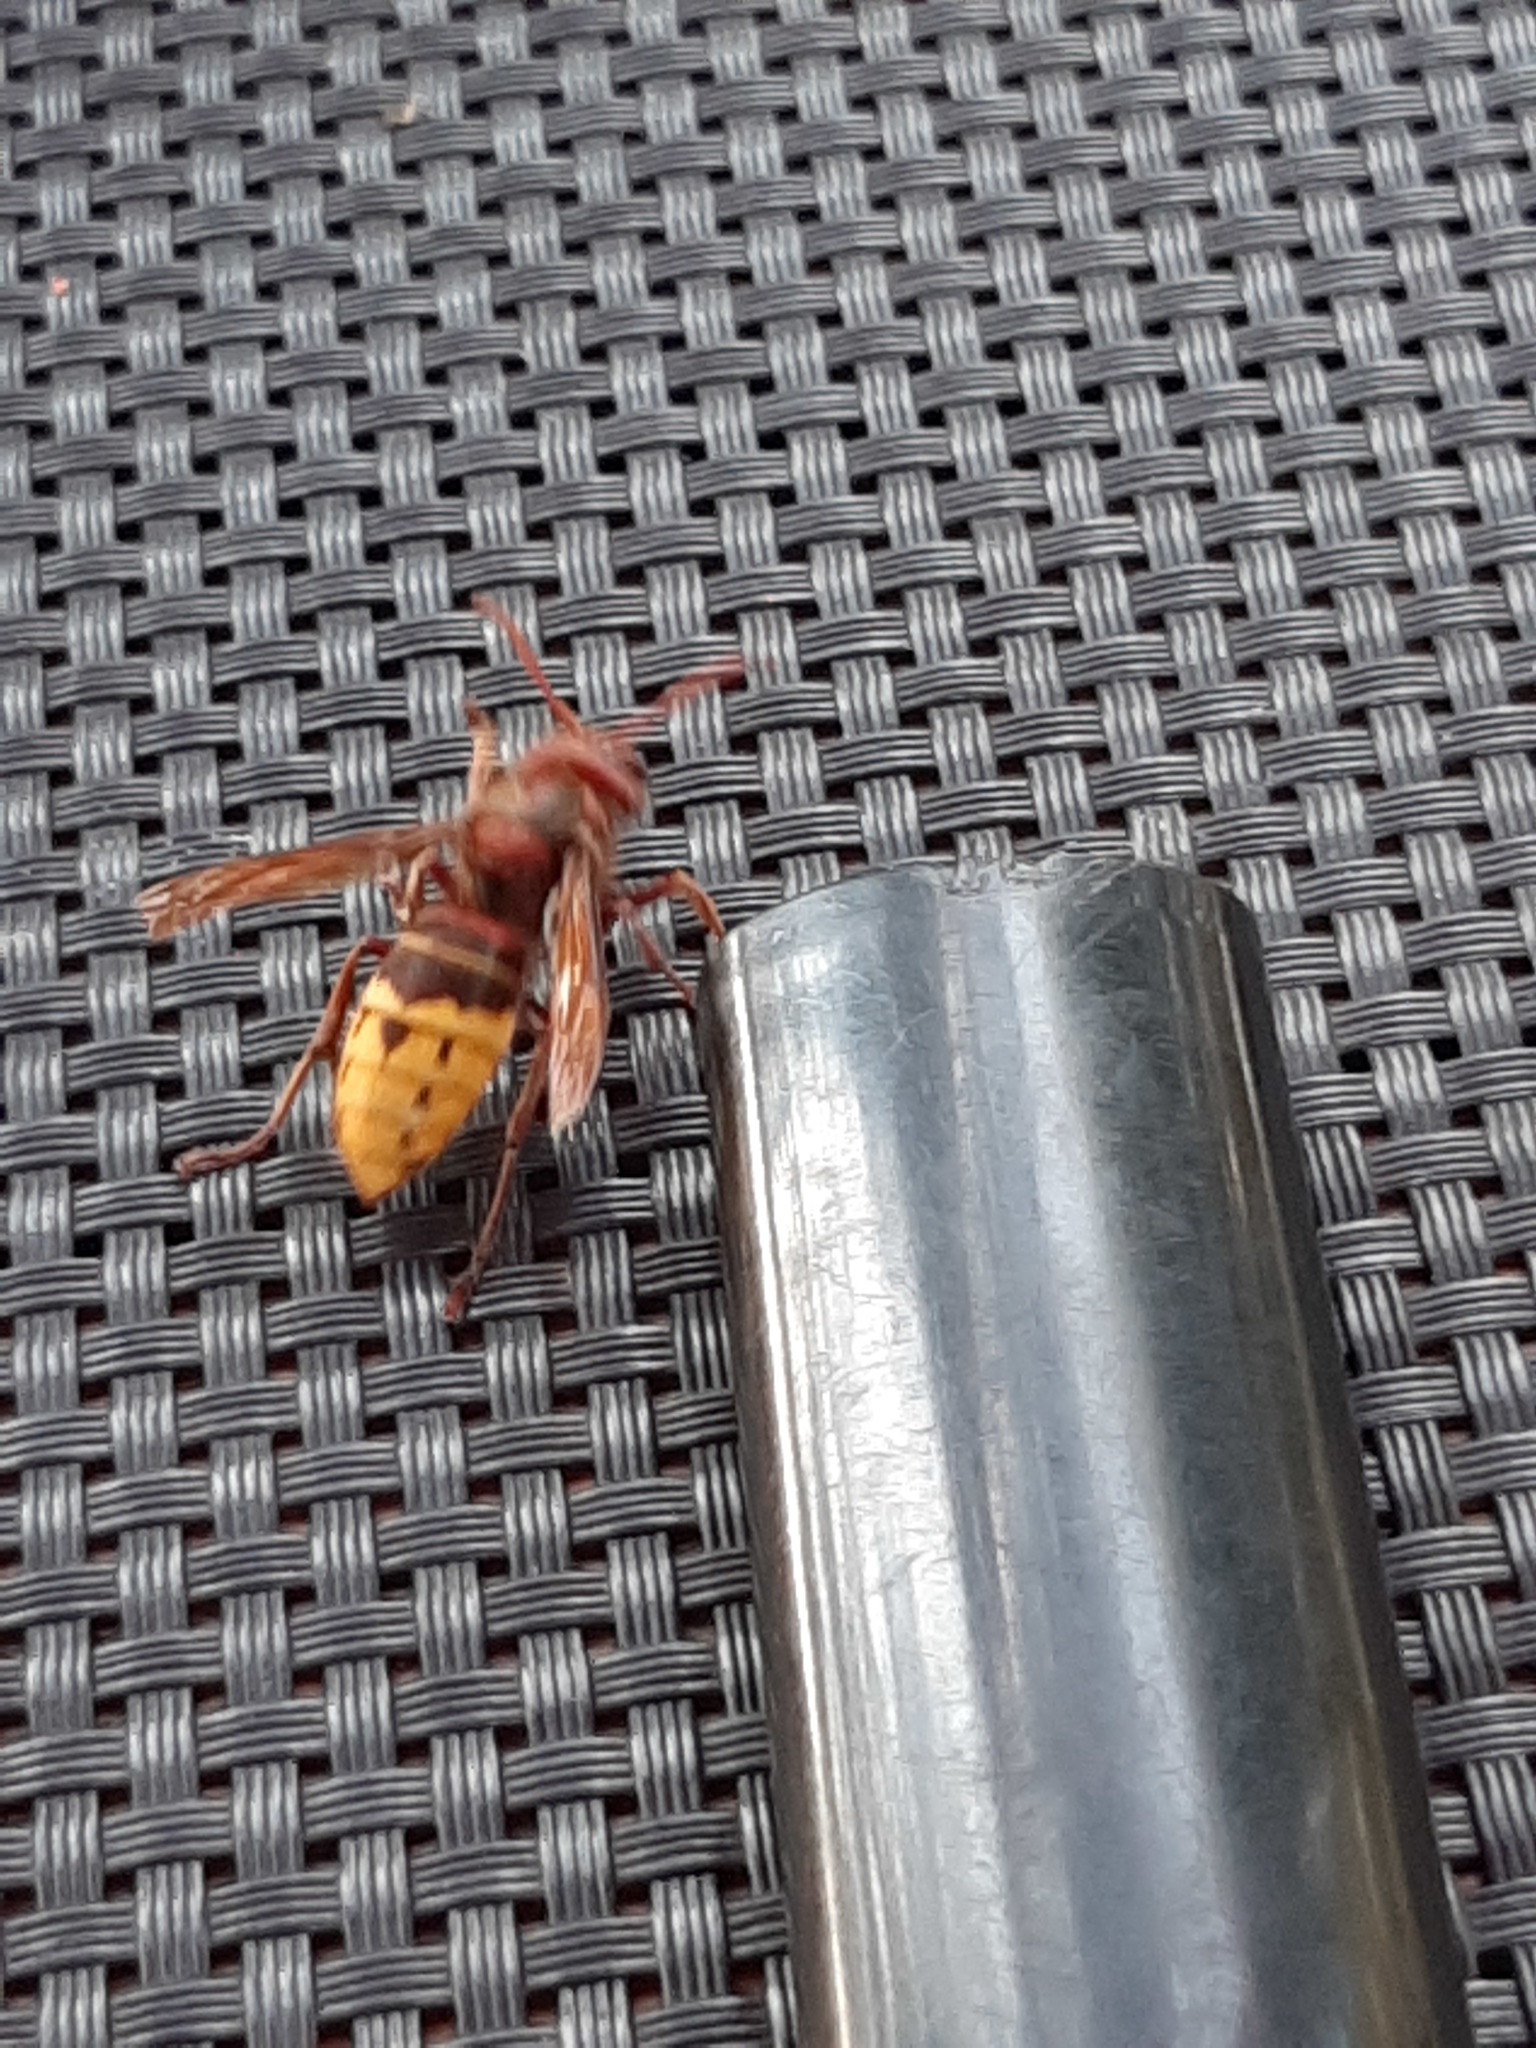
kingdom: Animalia
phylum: Arthropoda
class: Insecta
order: Hymenoptera
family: Vespidae
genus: Vespa
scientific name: Vespa crabro
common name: Hornet
